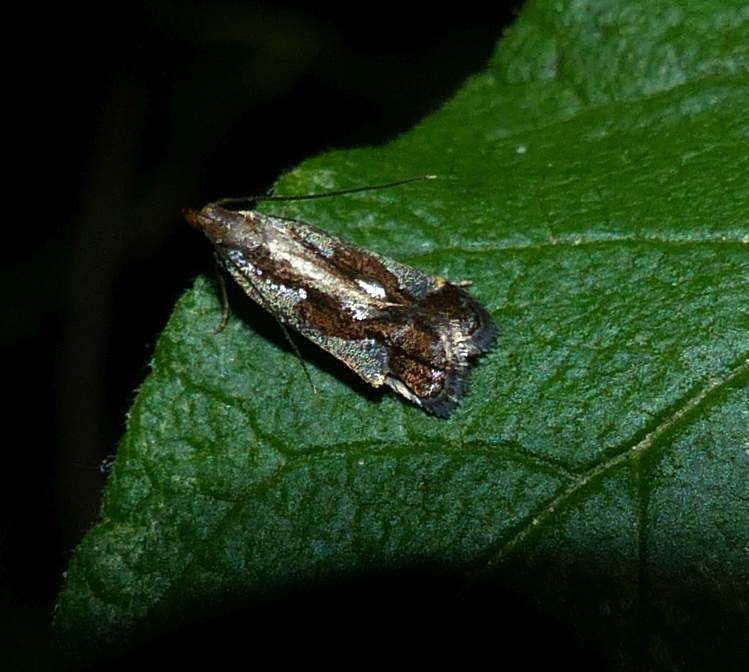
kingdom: Animalia
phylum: Arthropoda
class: Insecta
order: Lepidoptera
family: Gelechiidae
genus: Dichomeris
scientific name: Dichomeris ochripalpella
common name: Shining dichomeris moth
